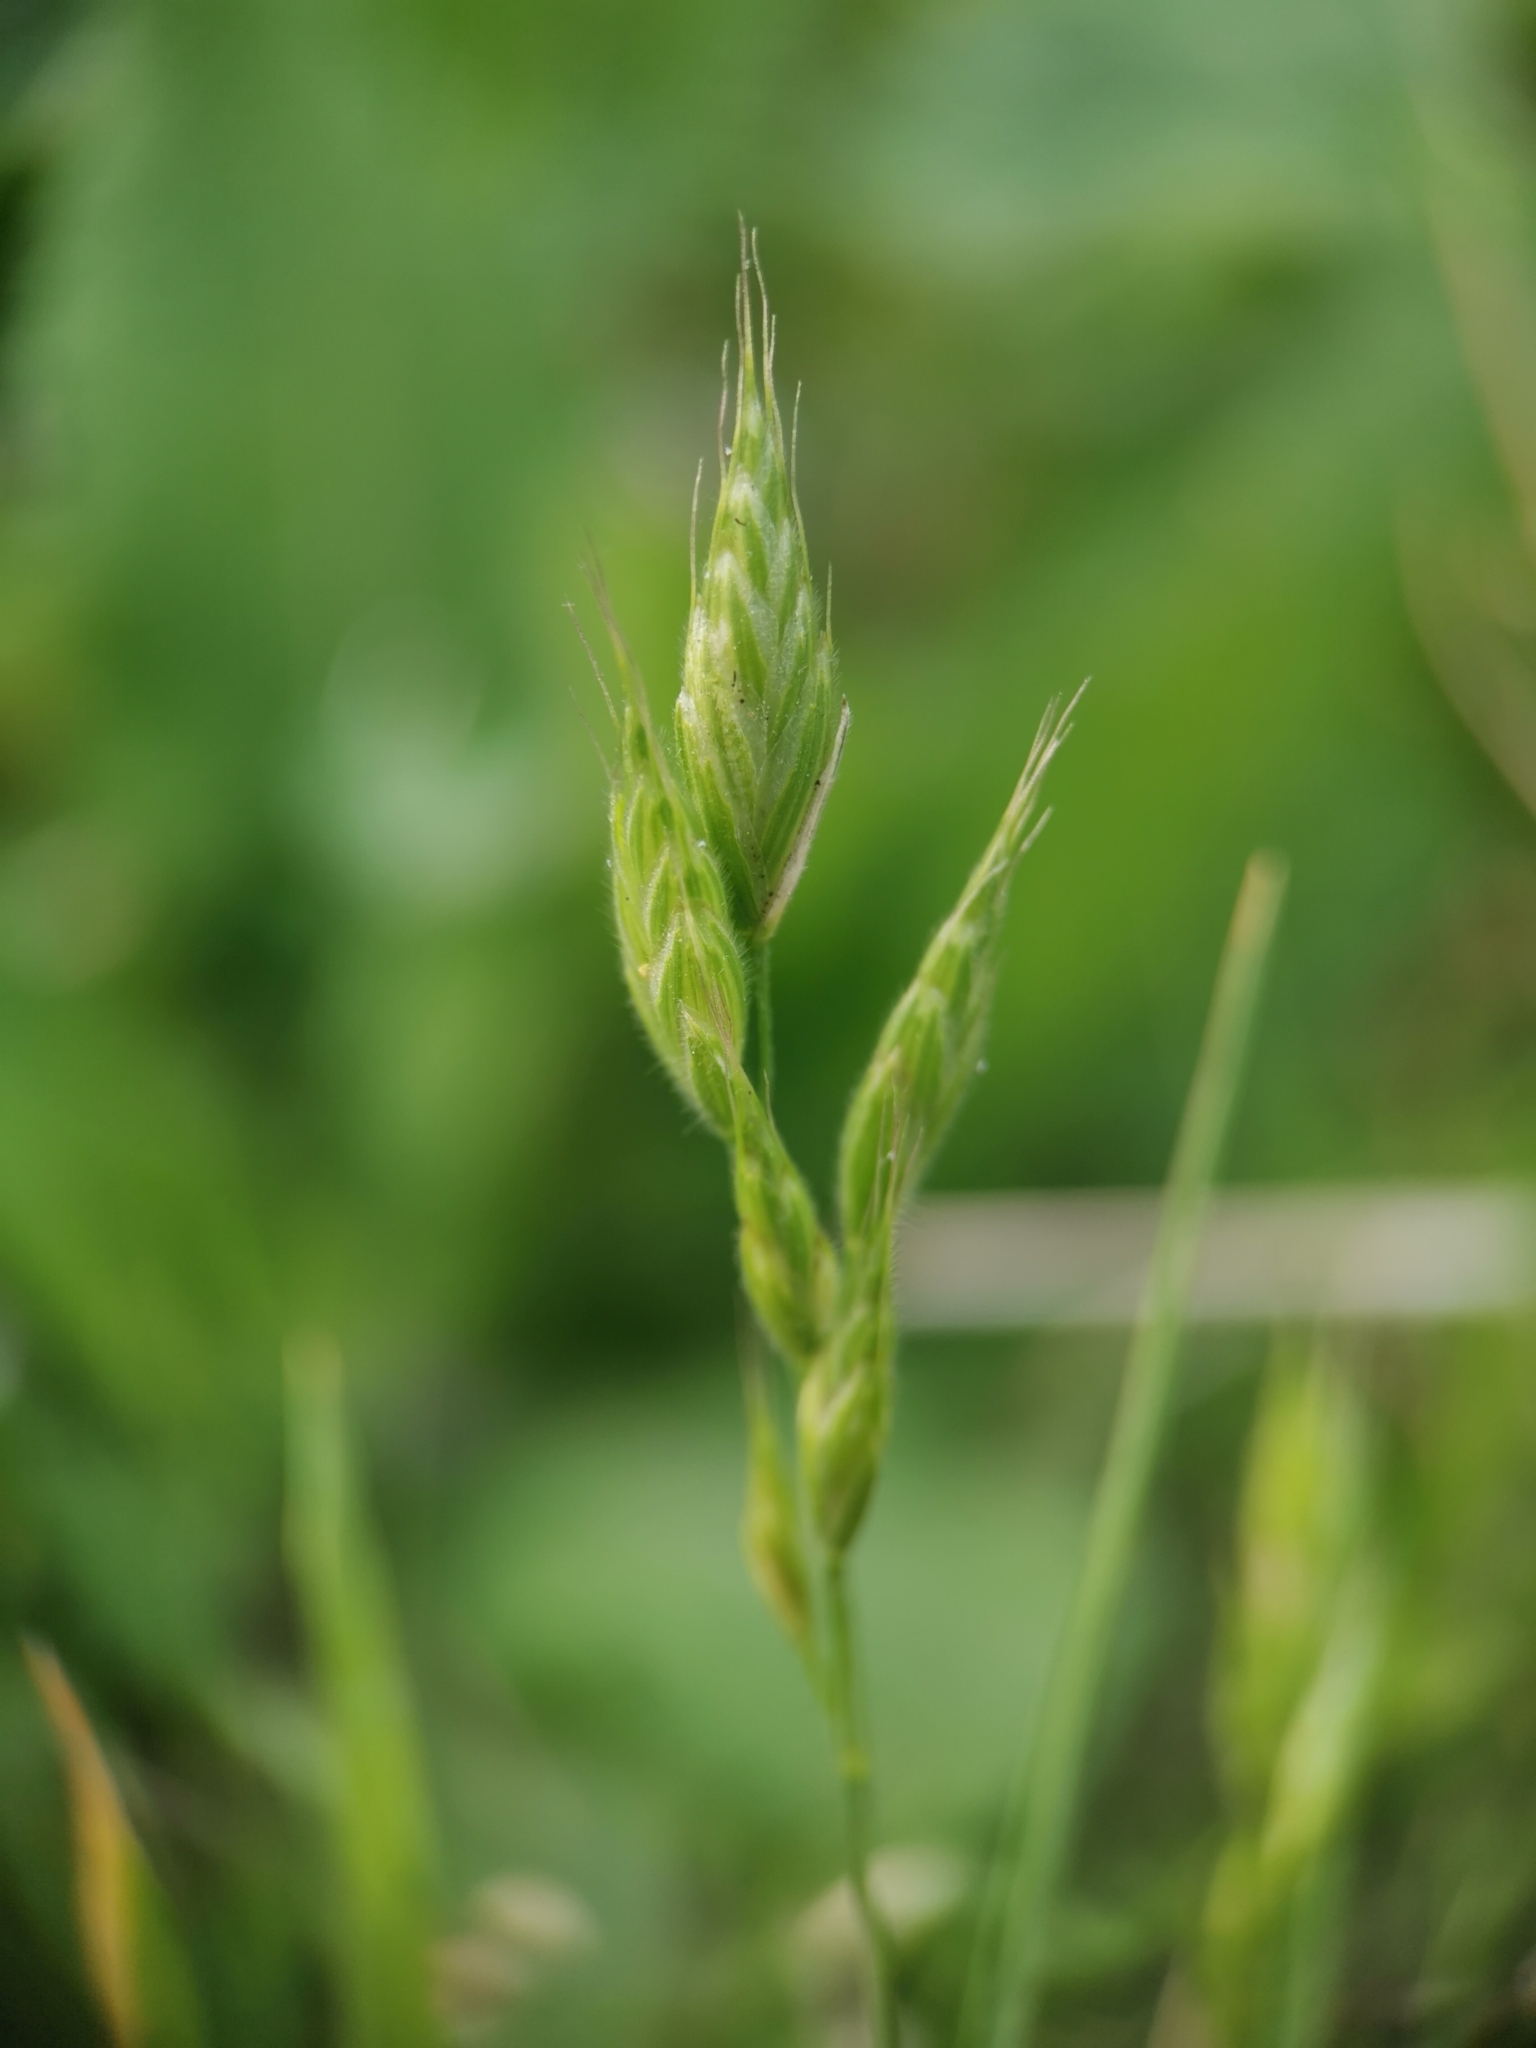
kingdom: Plantae
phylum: Tracheophyta
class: Liliopsida
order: Poales
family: Poaceae
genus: Bromus
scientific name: Bromus hordeaceus
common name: Soft brome
